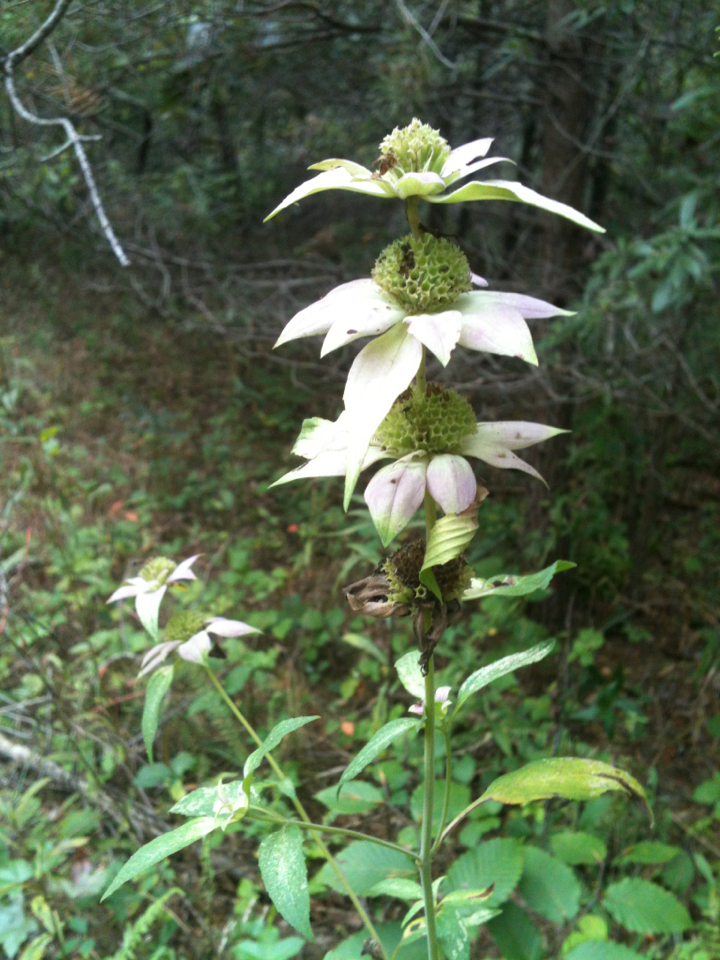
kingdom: Plantae
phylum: Tracheophyta
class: Magnoliopsida
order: Lamiales
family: Lamiaceae
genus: Monarda
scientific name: Monarda punctata
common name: Dotted monarda
